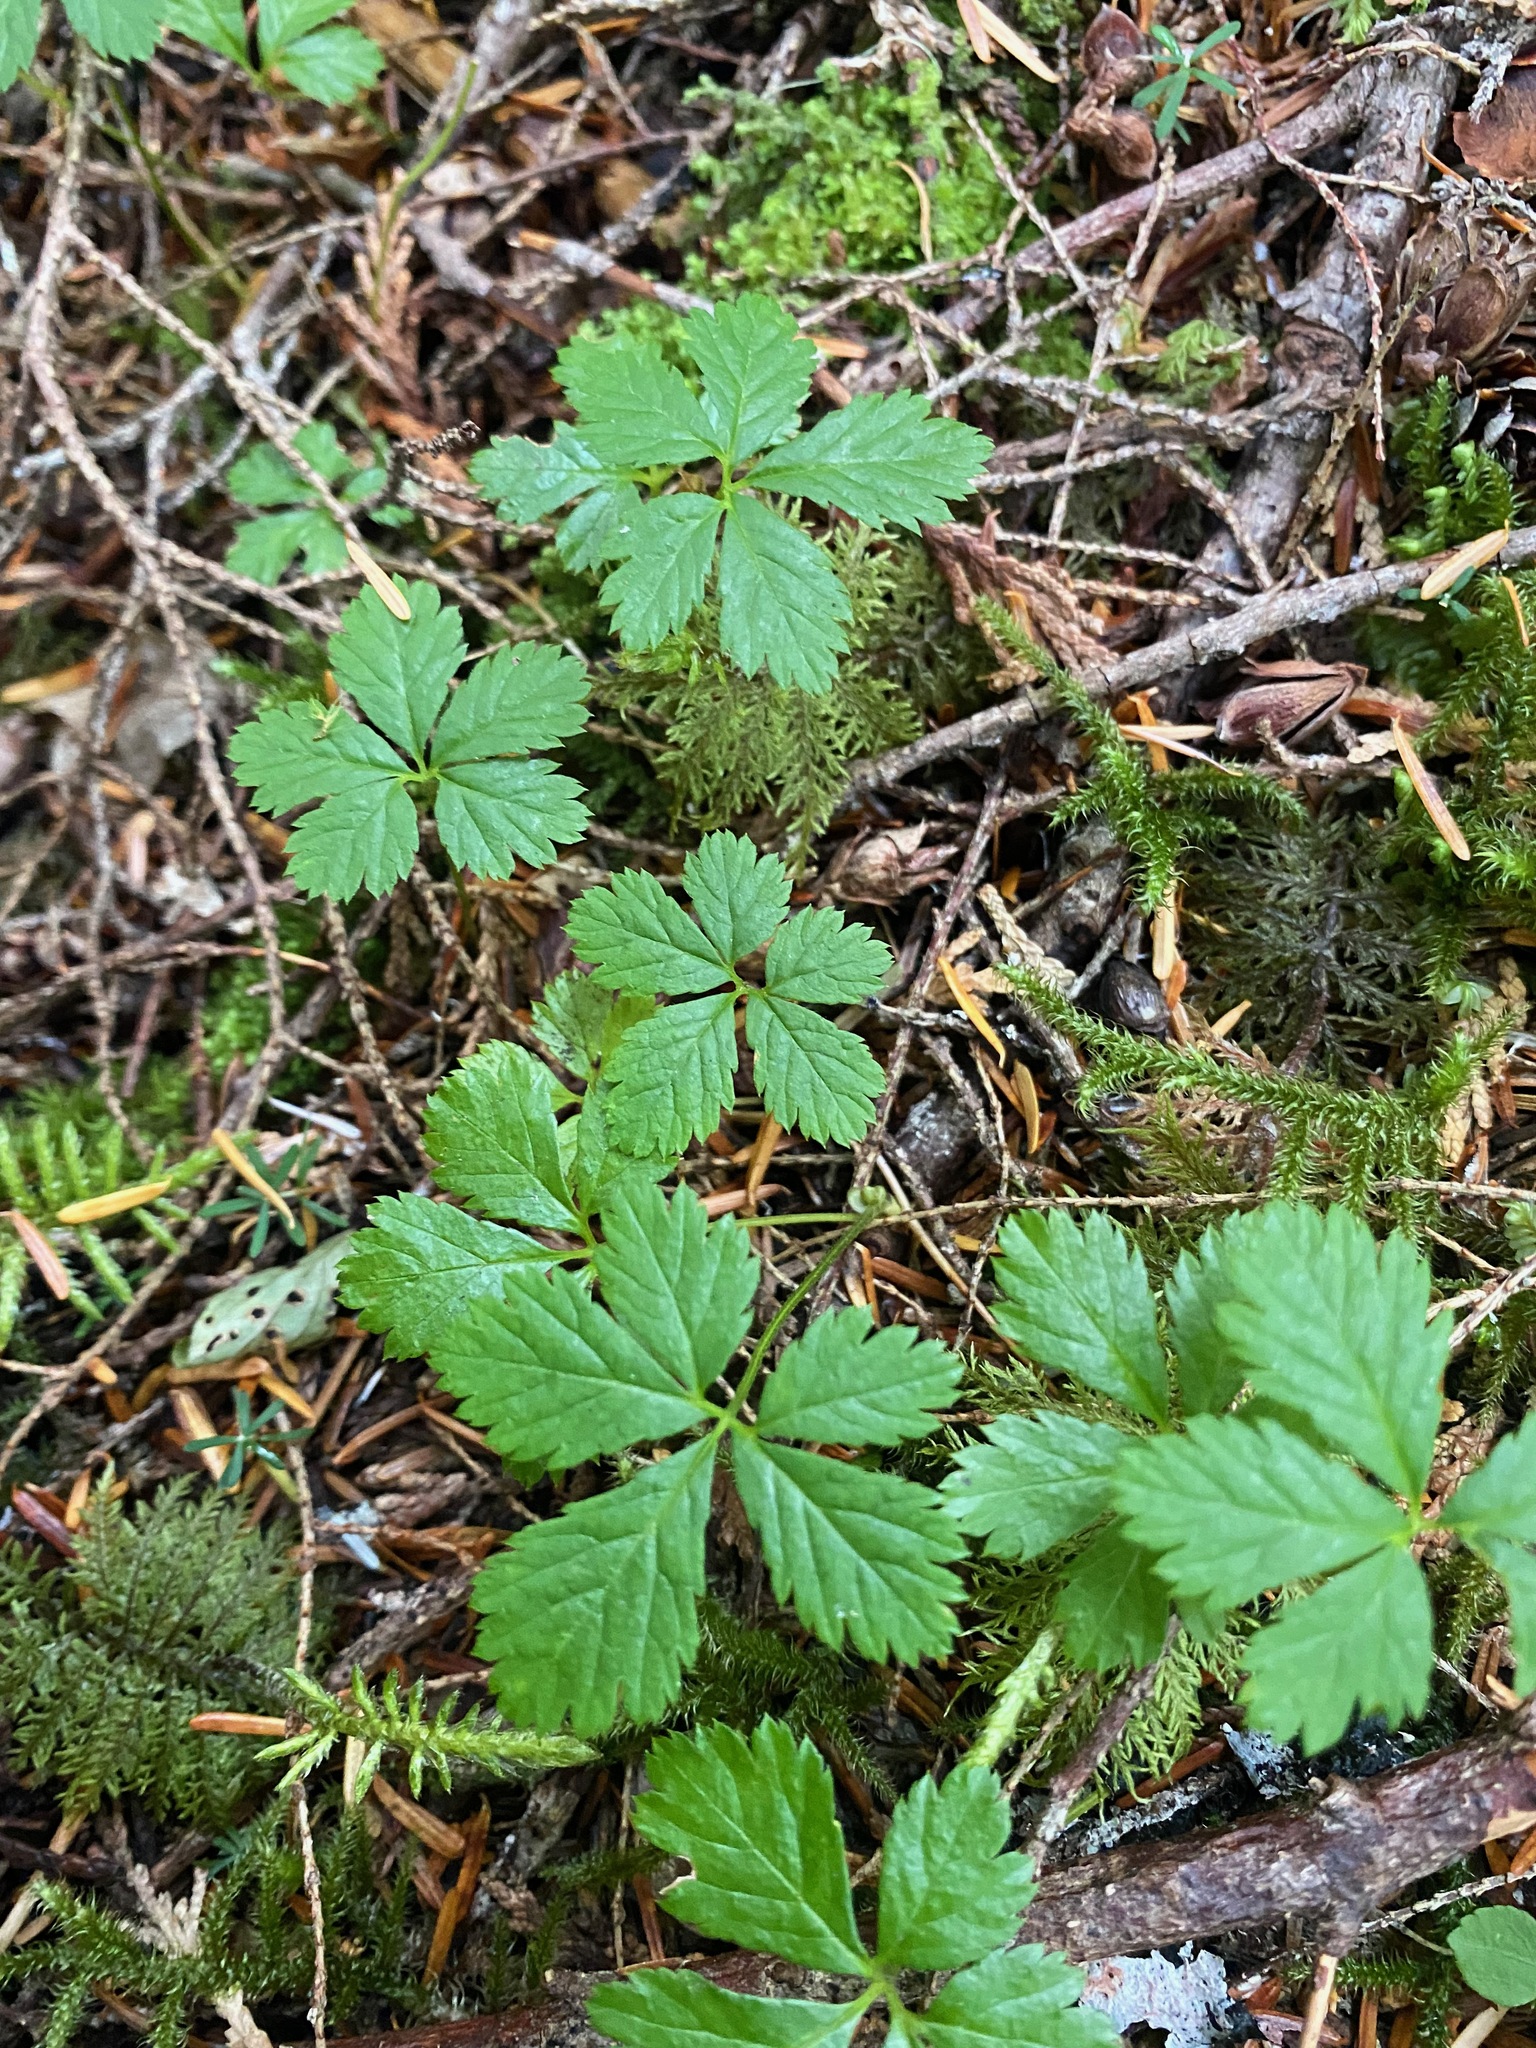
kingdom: Plantae
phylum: Tracheophyta
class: Magnoliopsida
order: Rosales
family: Rosaceae
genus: Rubus
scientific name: Rubus pedatus
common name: Creeping raspberry
